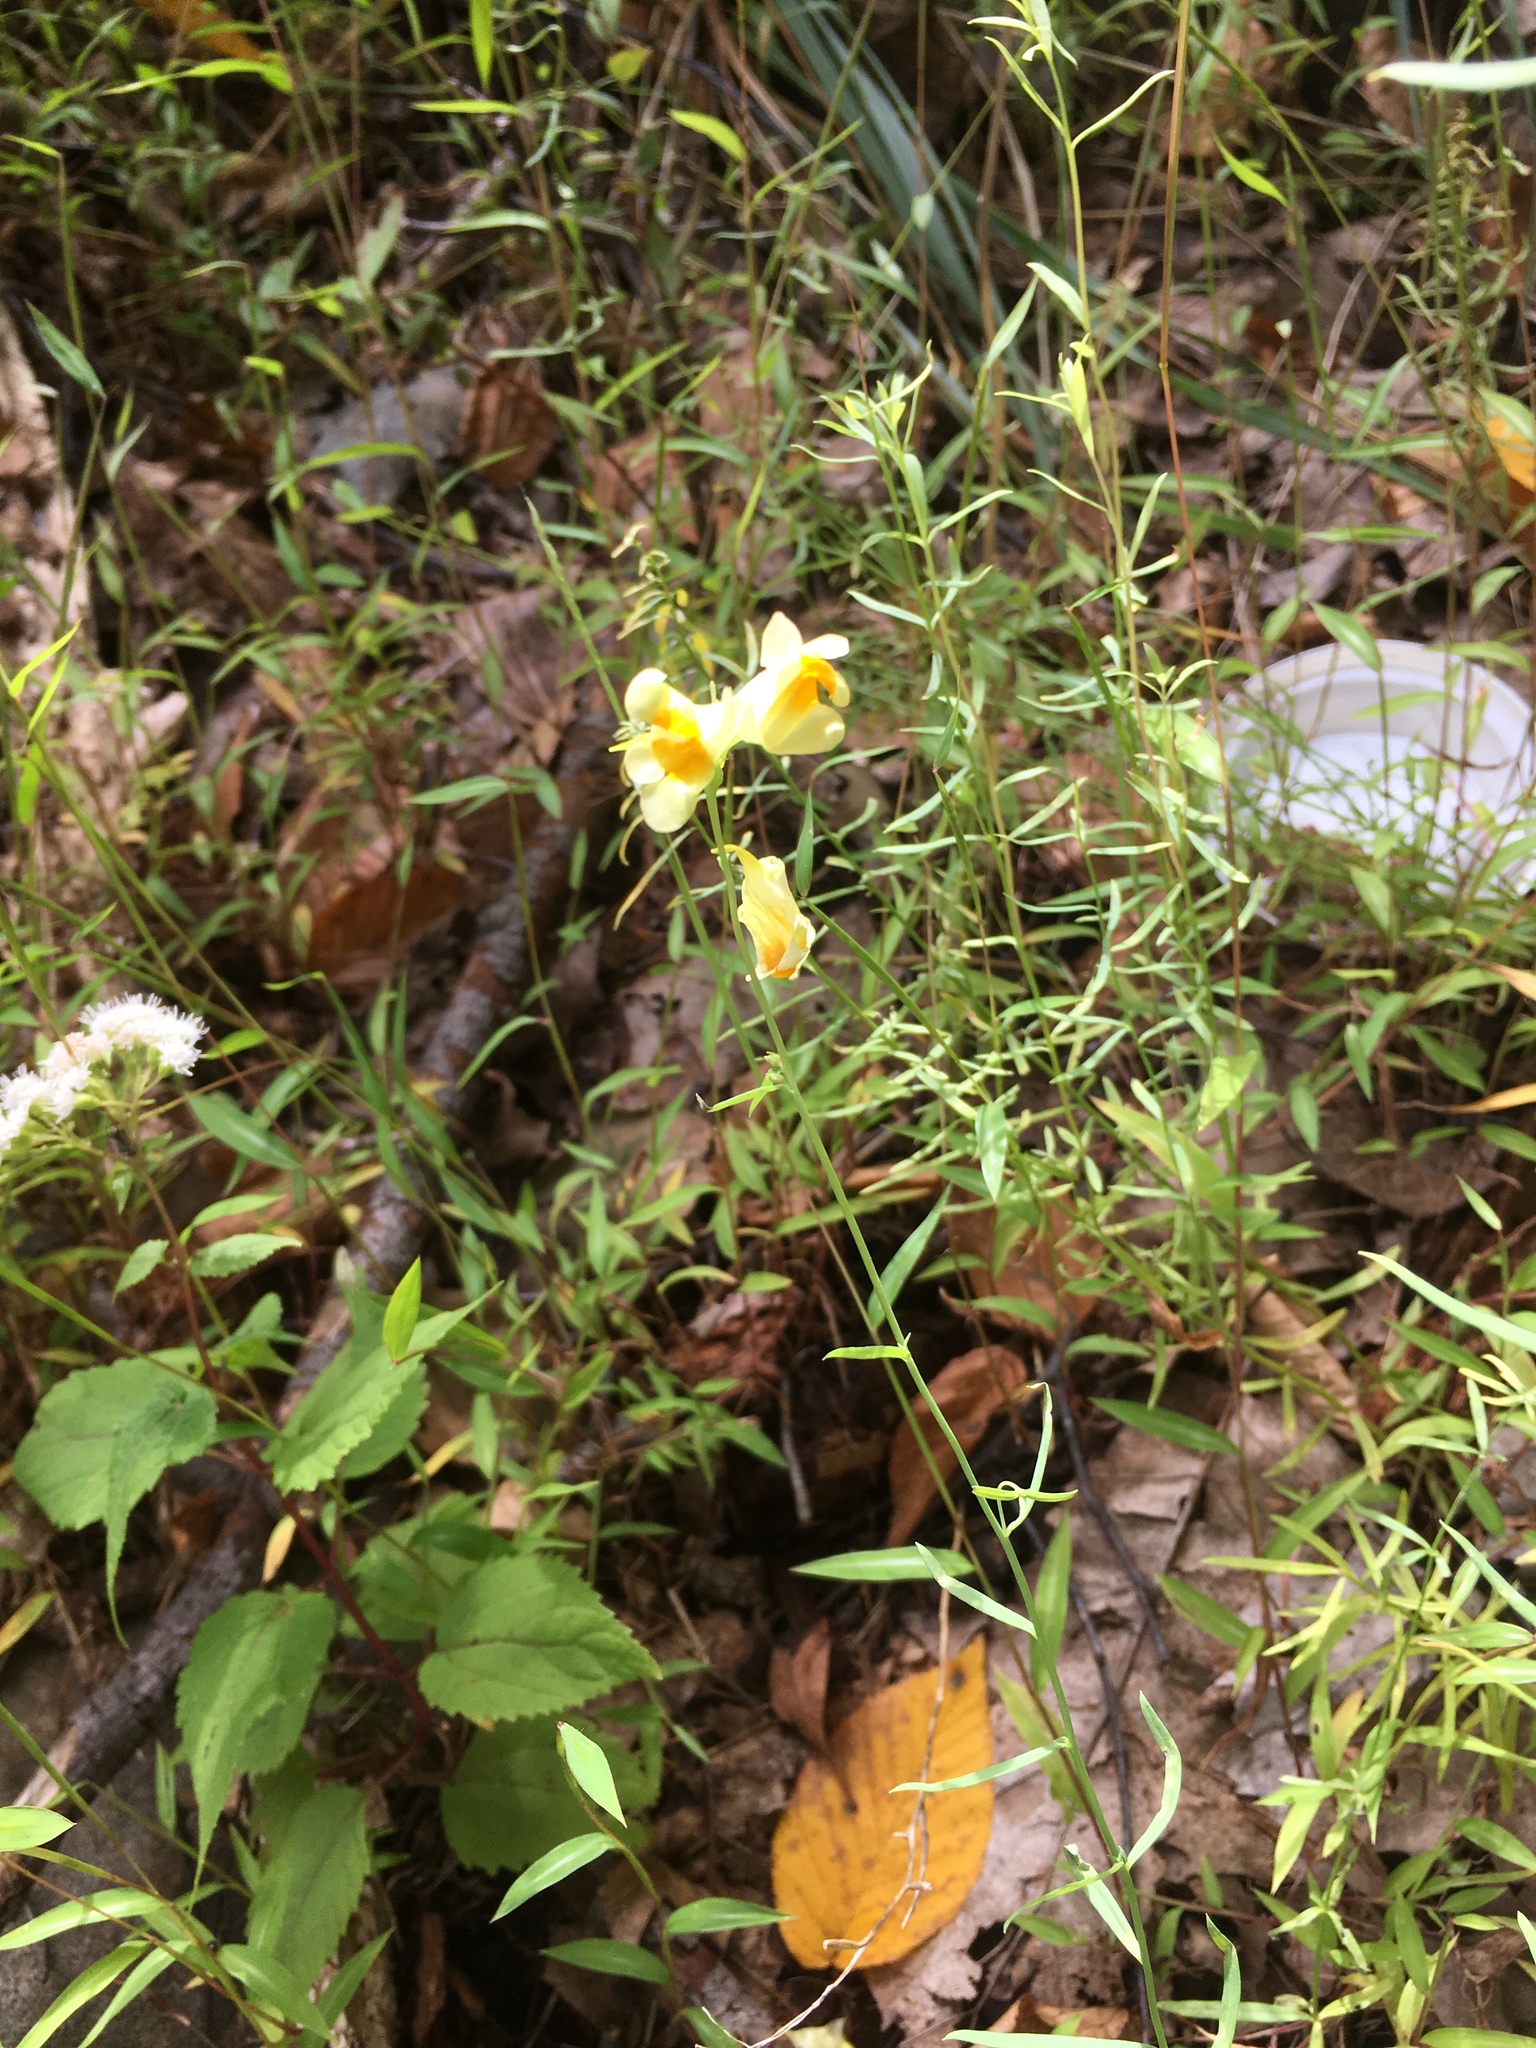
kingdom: Plantae
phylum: Tracheophyta
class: Magnoliopsida
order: Lamiales
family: Plantaginaceae
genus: Linaria
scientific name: Linaria vulgaris
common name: Butter and eggs
